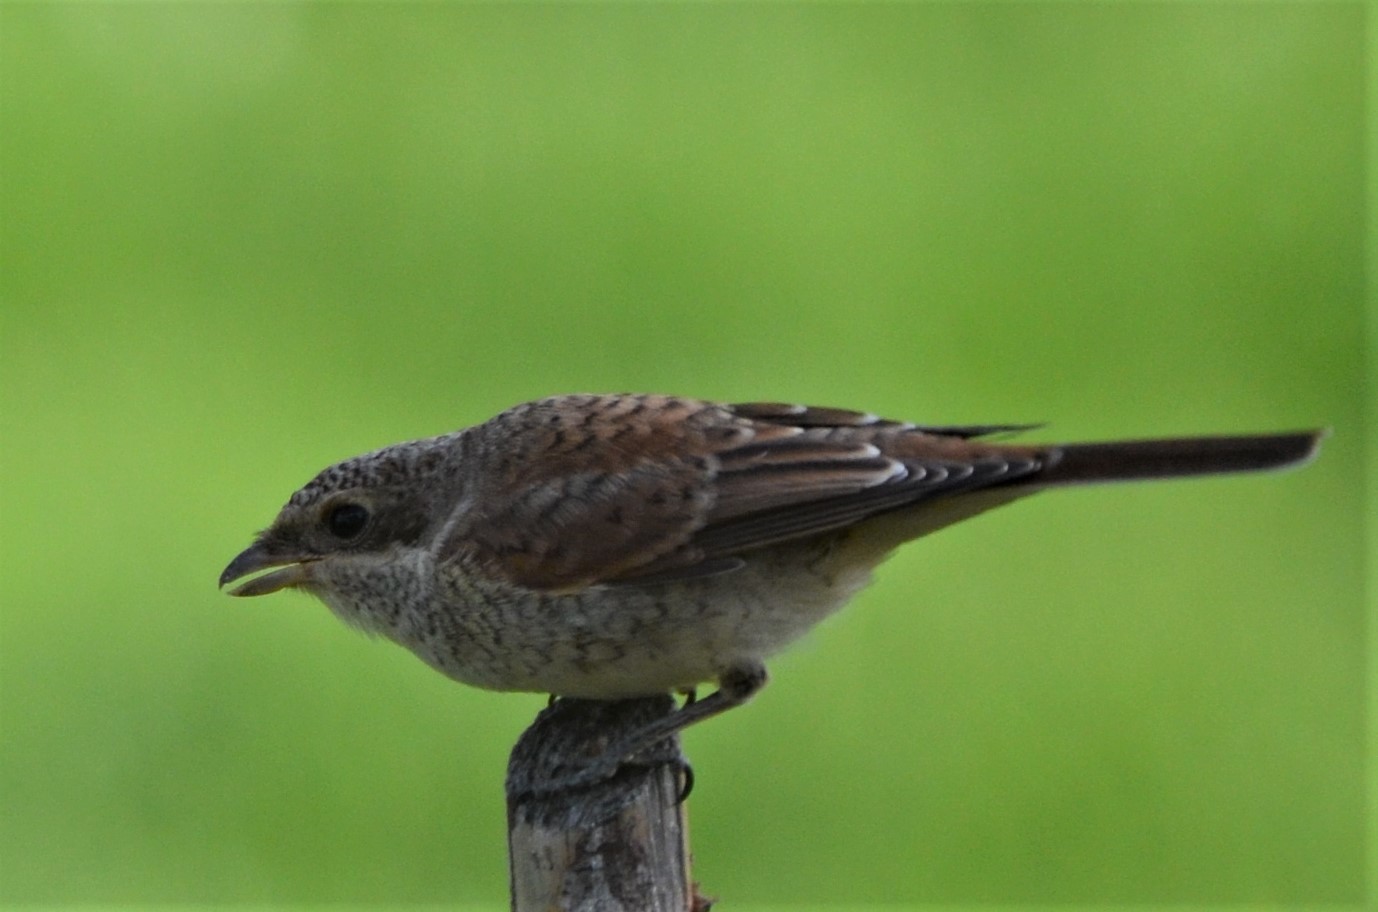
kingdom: Animalia
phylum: Chordata
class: Aves
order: Passeriformes
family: Laniidae
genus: Lanius
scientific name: Lanius collurio
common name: Red-backed shrike
